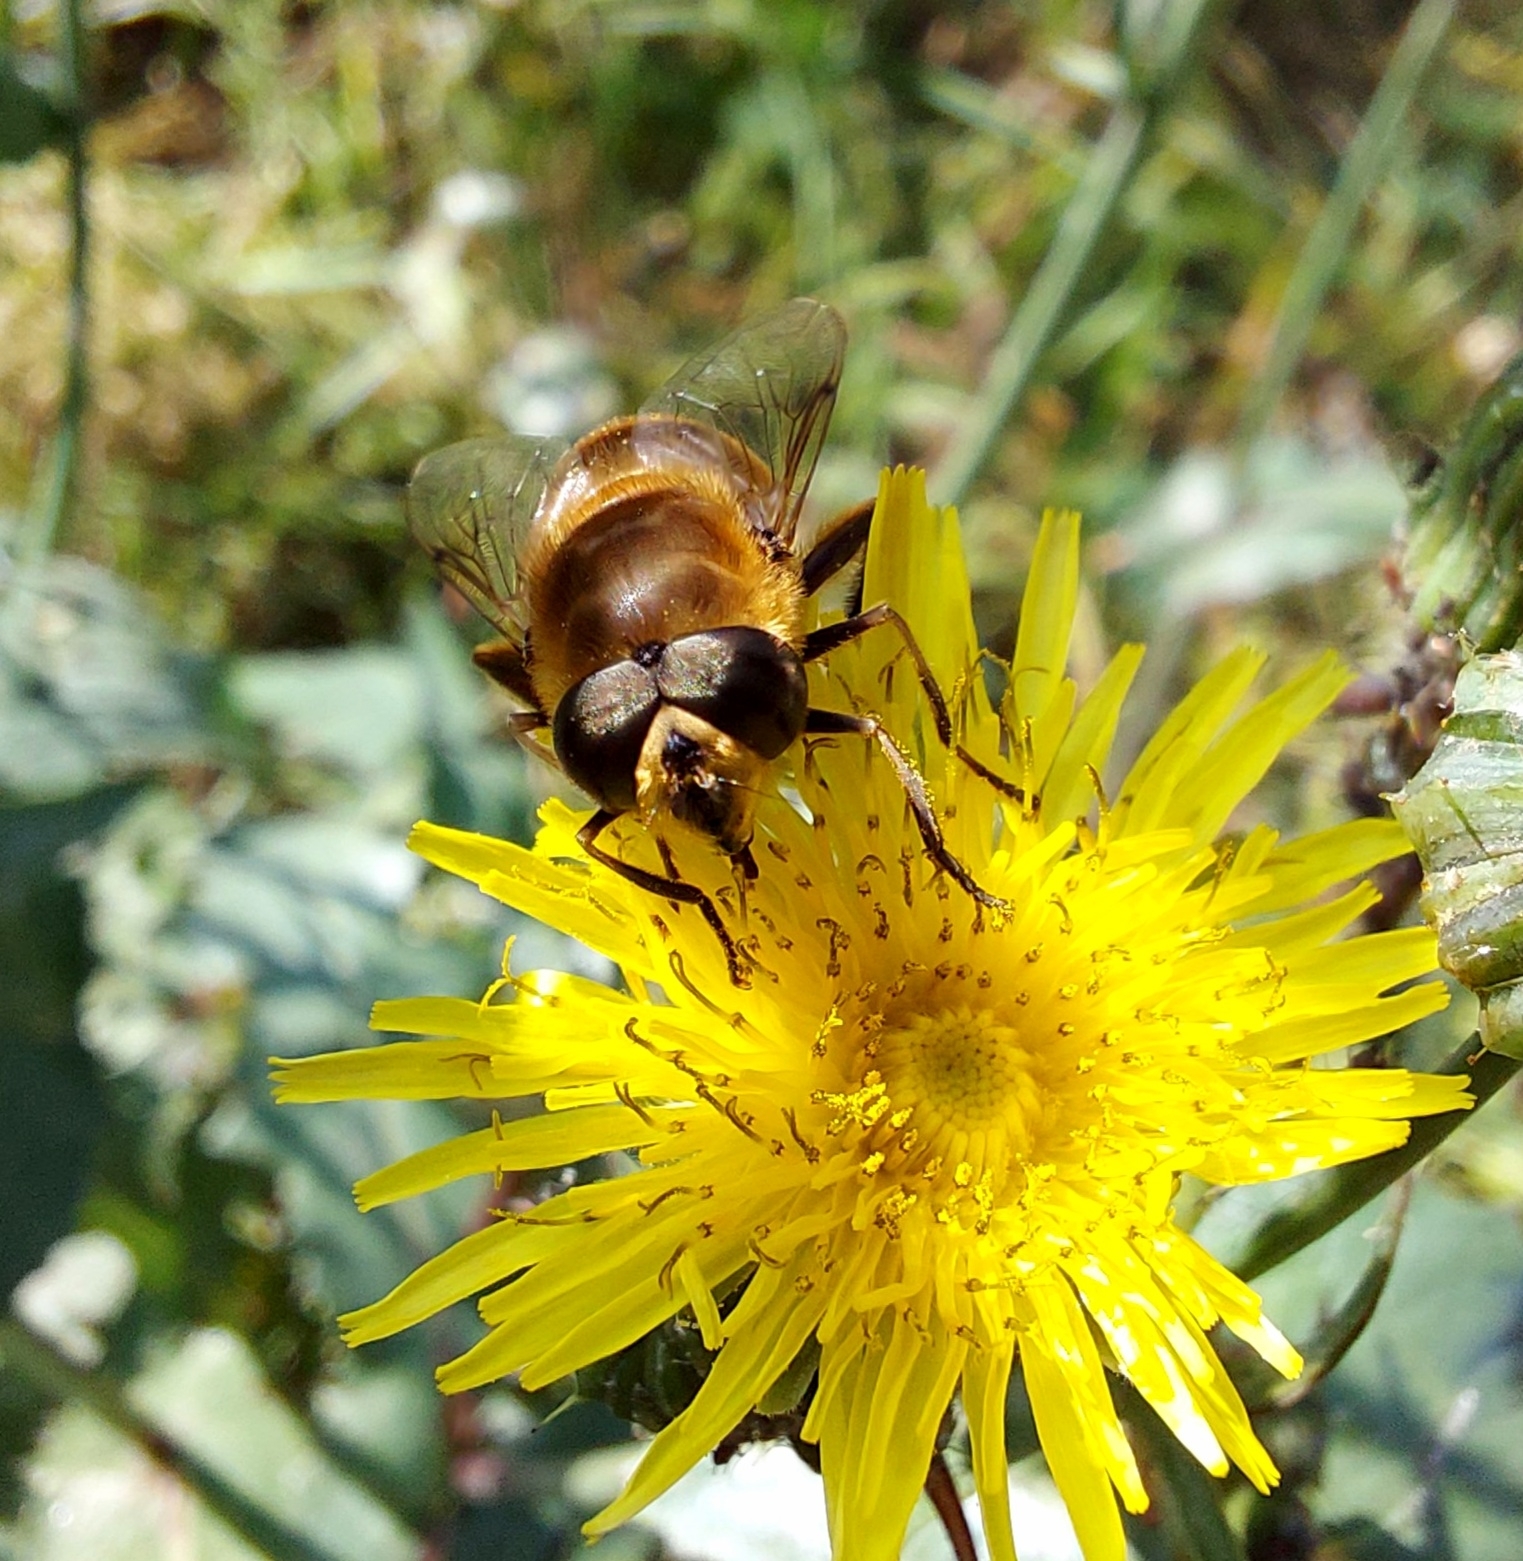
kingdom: Animalia
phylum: Arthropoda
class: Insecta
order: Diptera
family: Syrphidae
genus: Eristalis
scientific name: Eristalis tenax
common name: Drone fly
